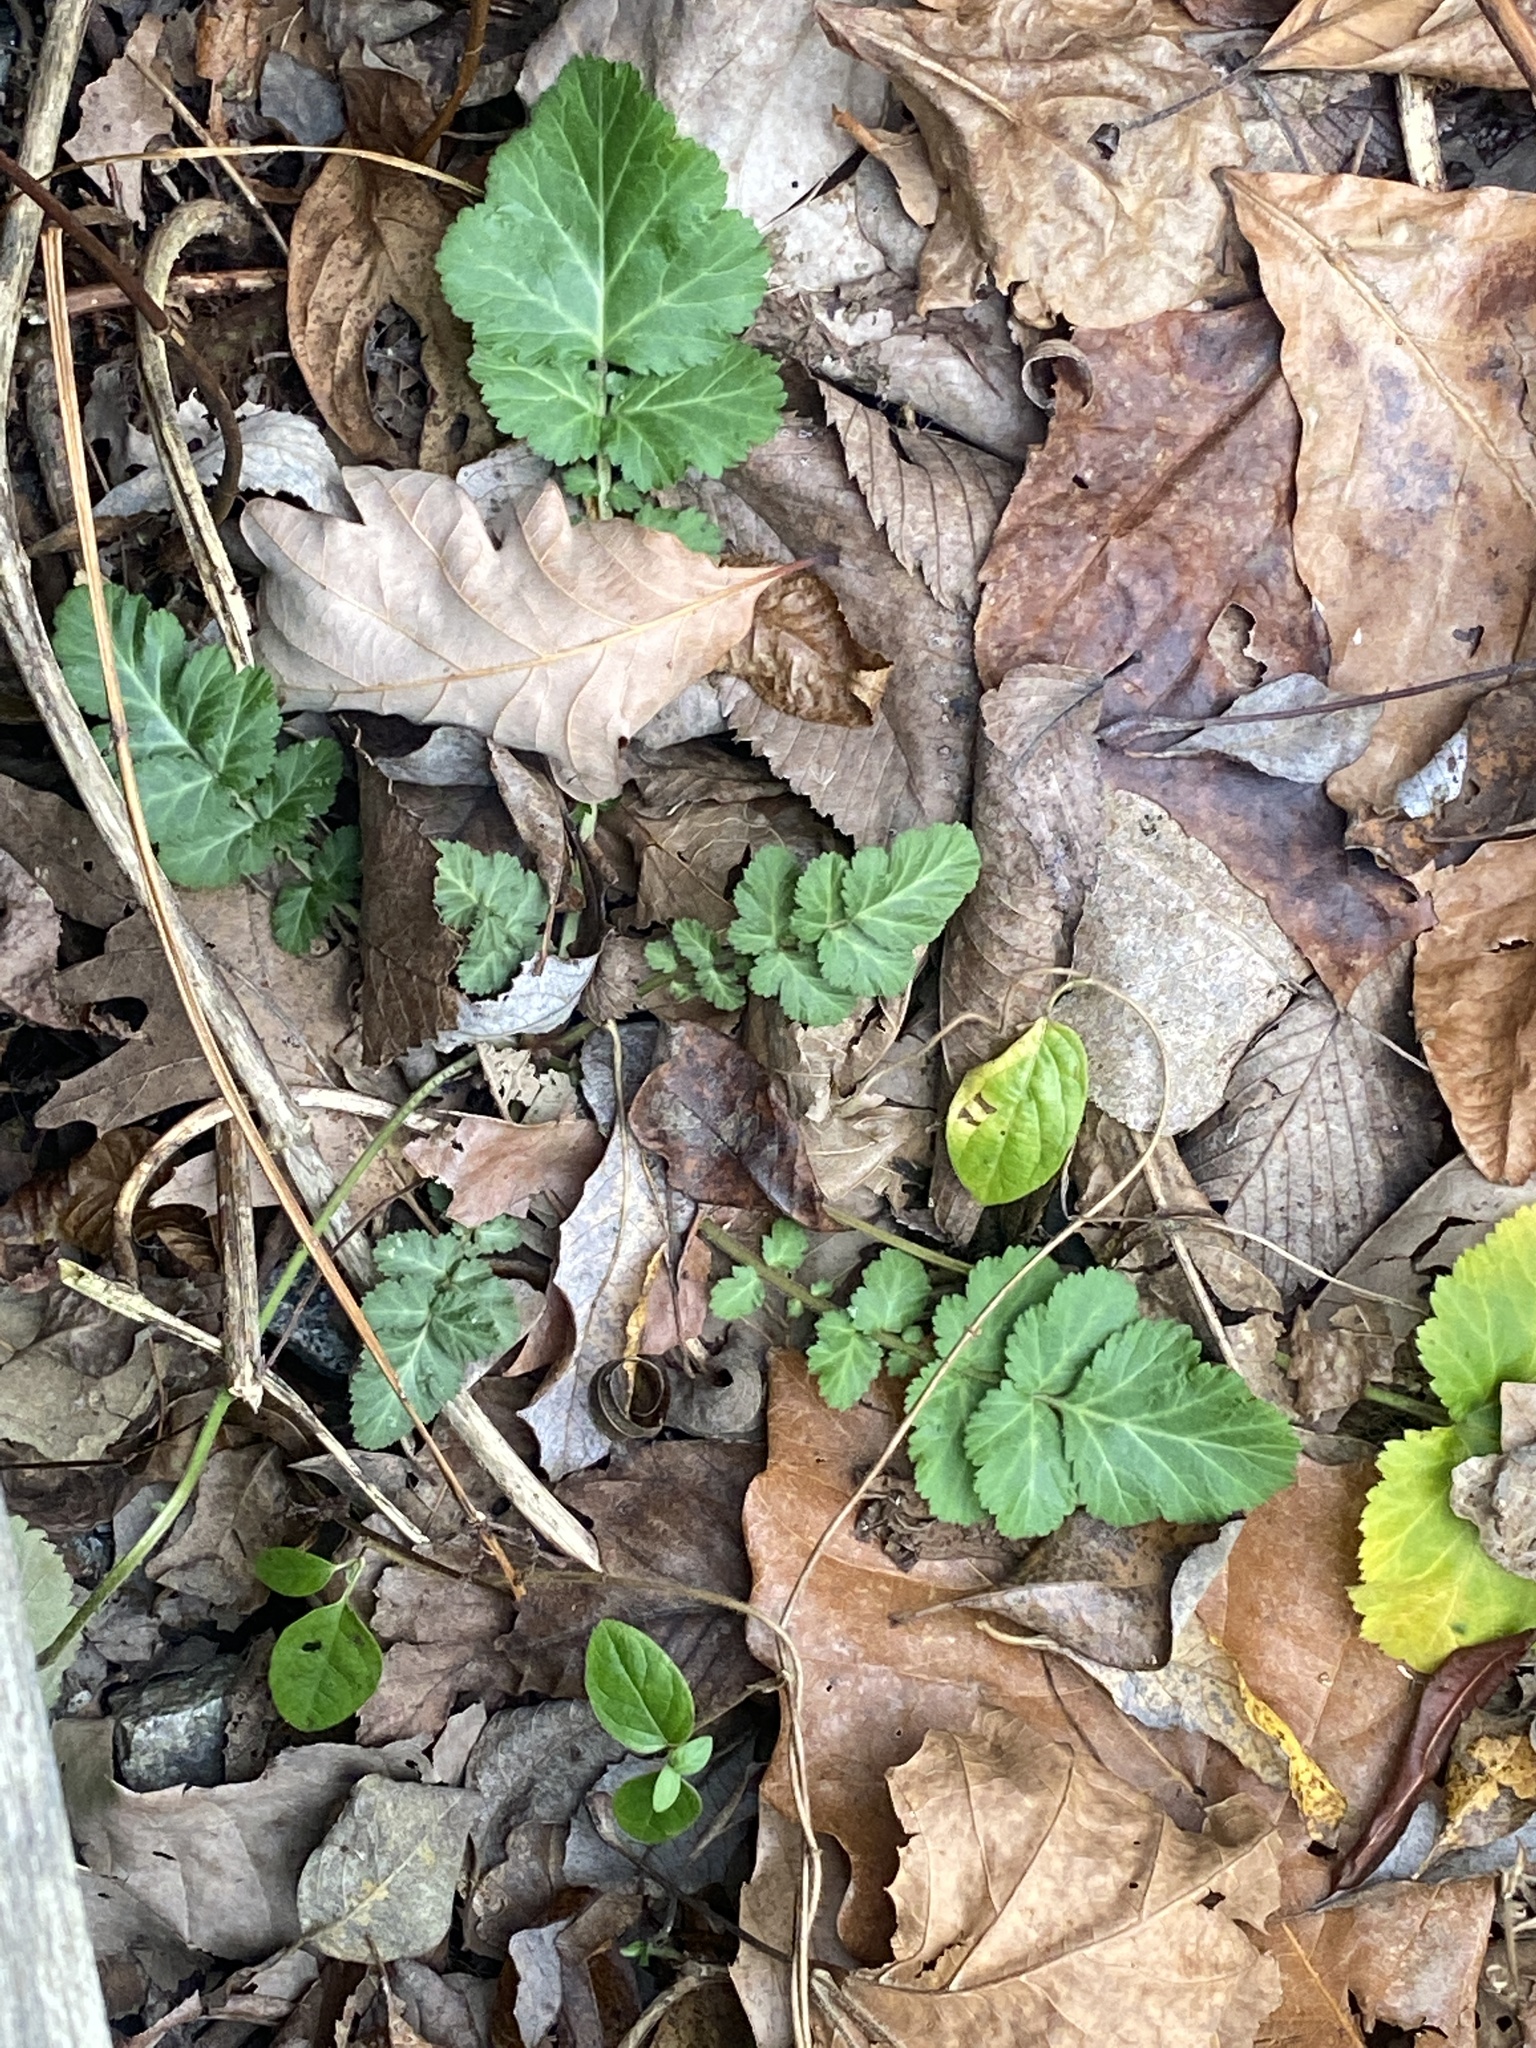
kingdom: Plantae
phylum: Tracheophyta
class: Magnoliopsida
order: Rosales
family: Rosaceae
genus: Geum
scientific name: Geum canadense
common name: White avens
